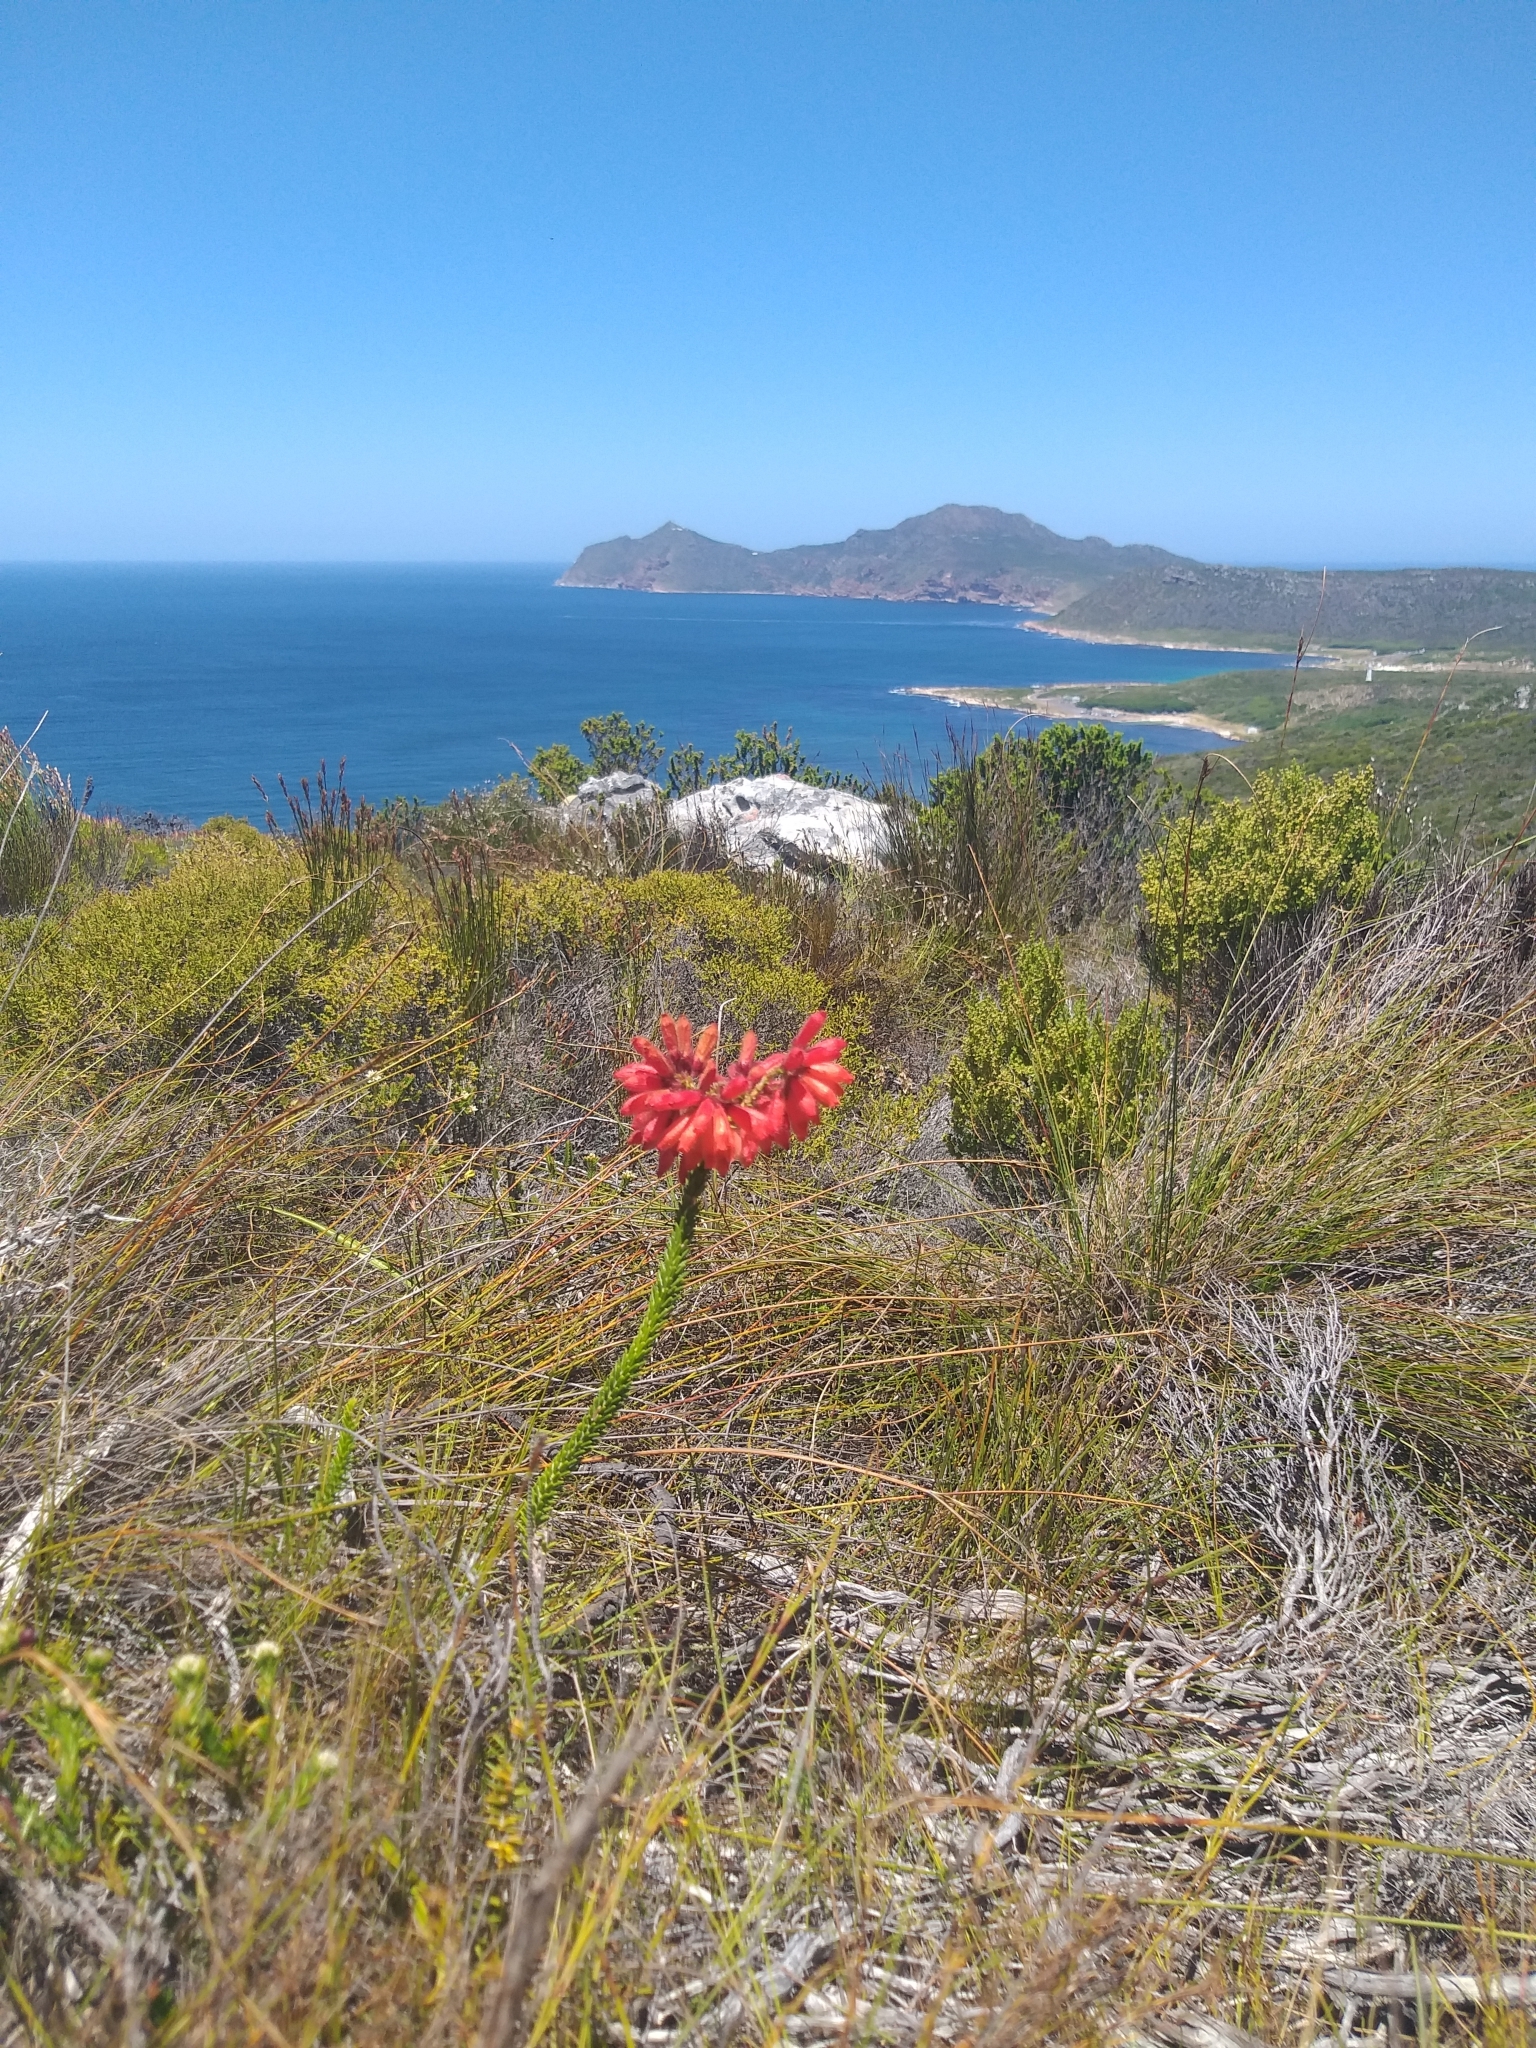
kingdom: Plantae
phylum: Tracheophyta
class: Magnoliopsida
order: Ericales
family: Ericaceae
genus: Erica
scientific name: Erica cerinthoides
